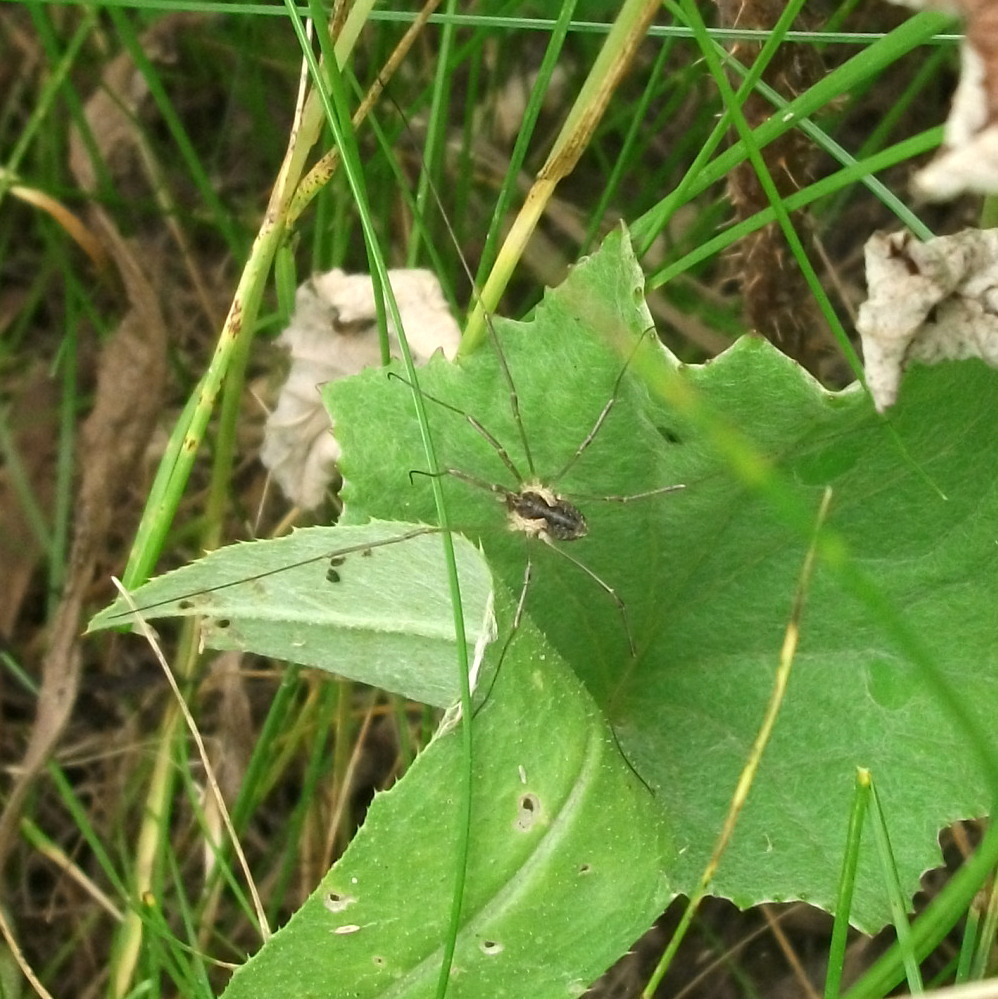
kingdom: Animalia
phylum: Arthropoda
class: Arachnida
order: Opiliones
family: Phalangiidae
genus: Mitopus
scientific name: Mitopus morio
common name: Saddleback harvestman
